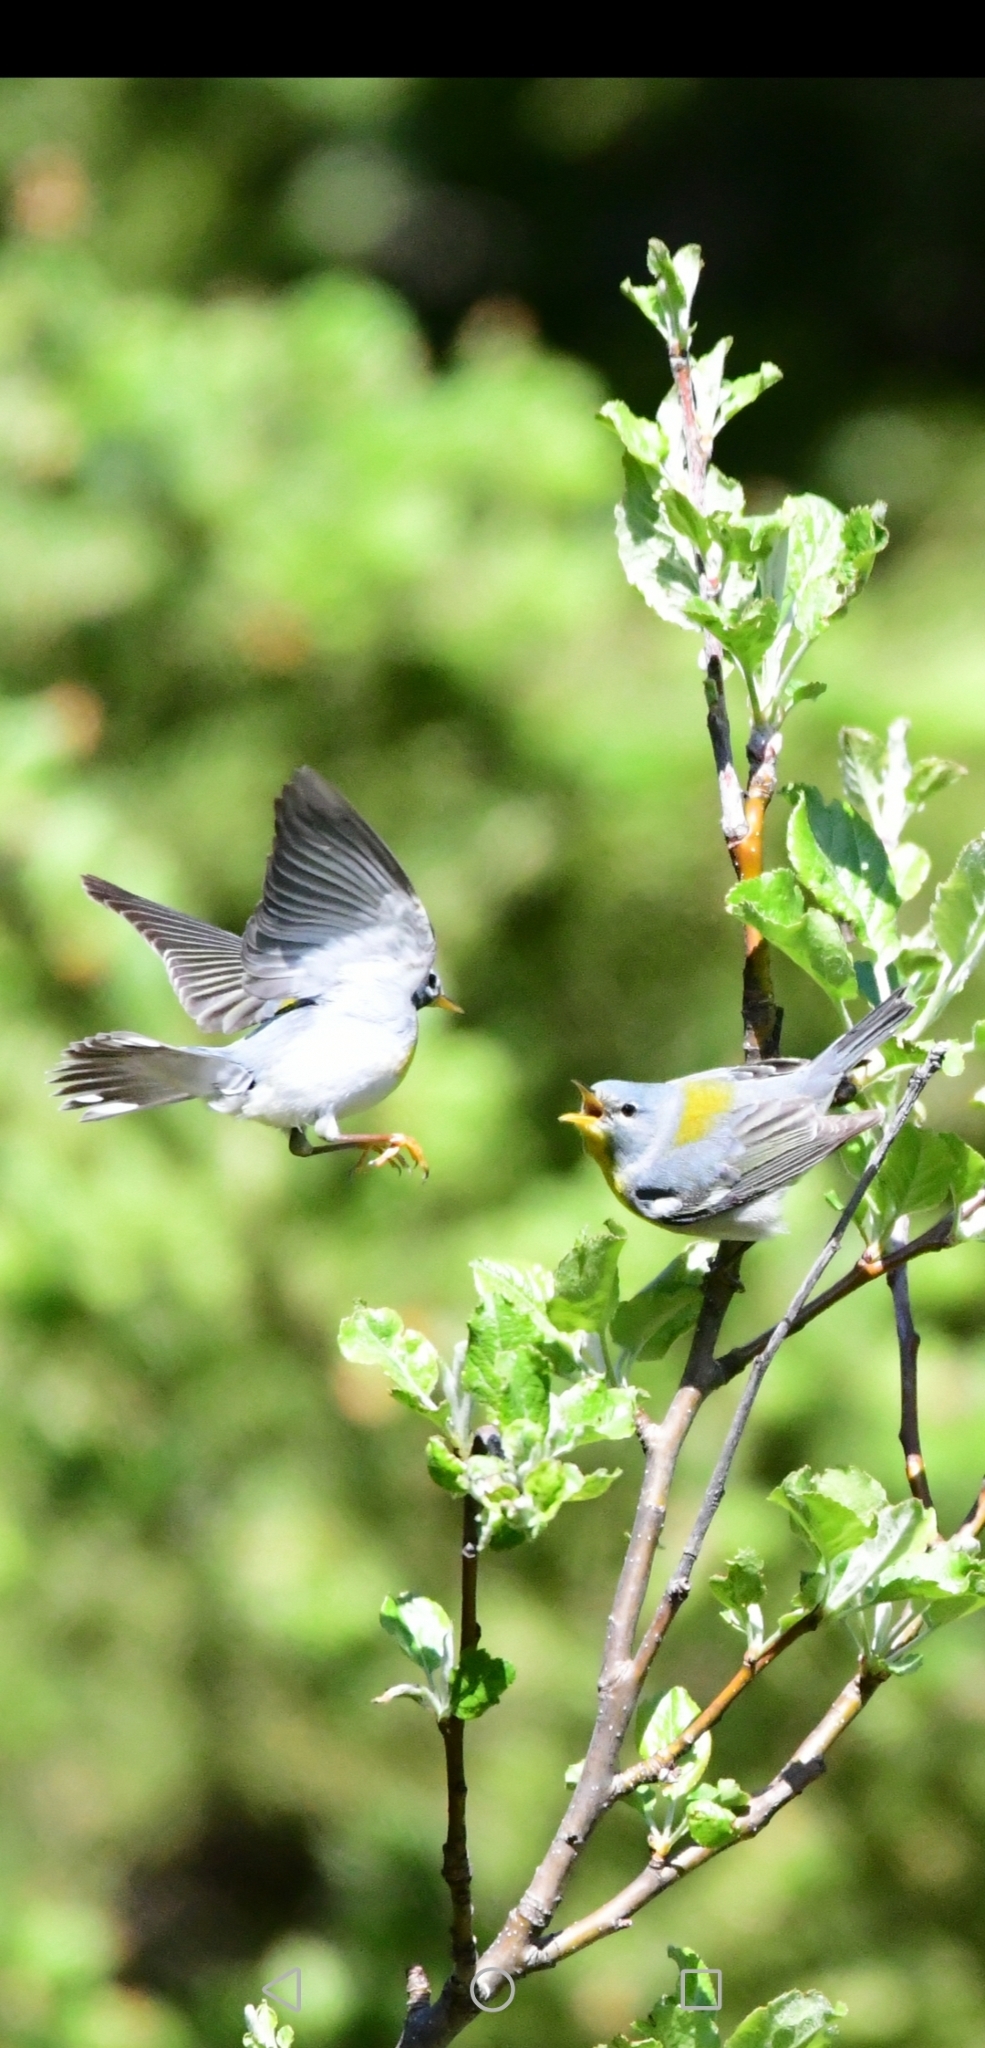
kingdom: Animalia
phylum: Chordata
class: Aves
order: Passeriformes
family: Parulidae
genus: Setophaga
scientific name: Setophaga americana
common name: Northern parula
